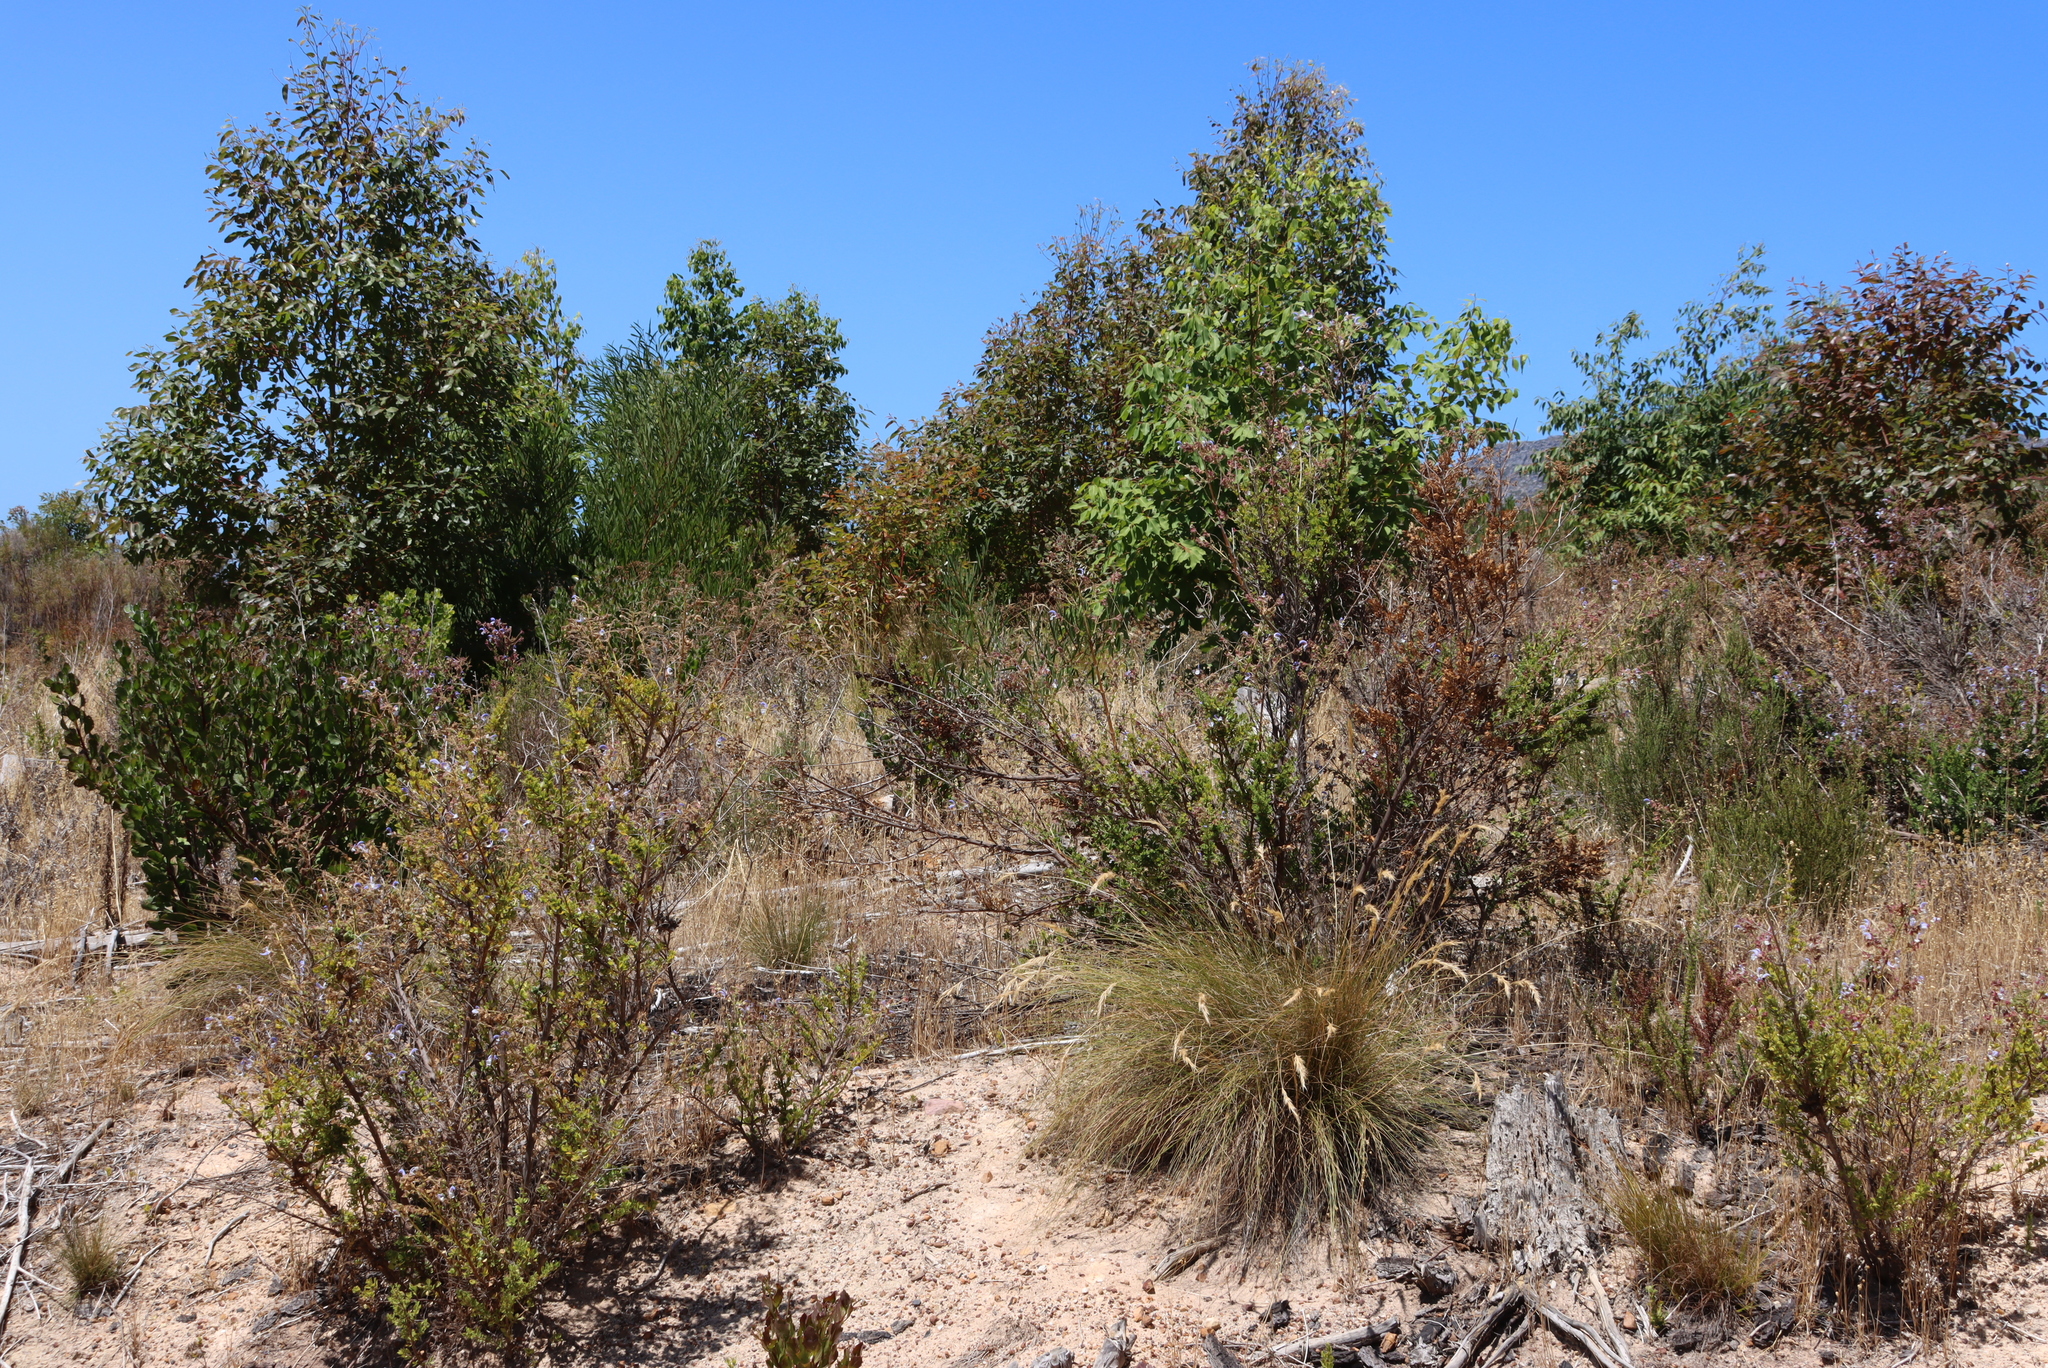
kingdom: Plantae
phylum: Tracheophyta
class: Liliopsida
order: Poales
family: Poaceae
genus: Tenaxia
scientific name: Tenaxia stricta
